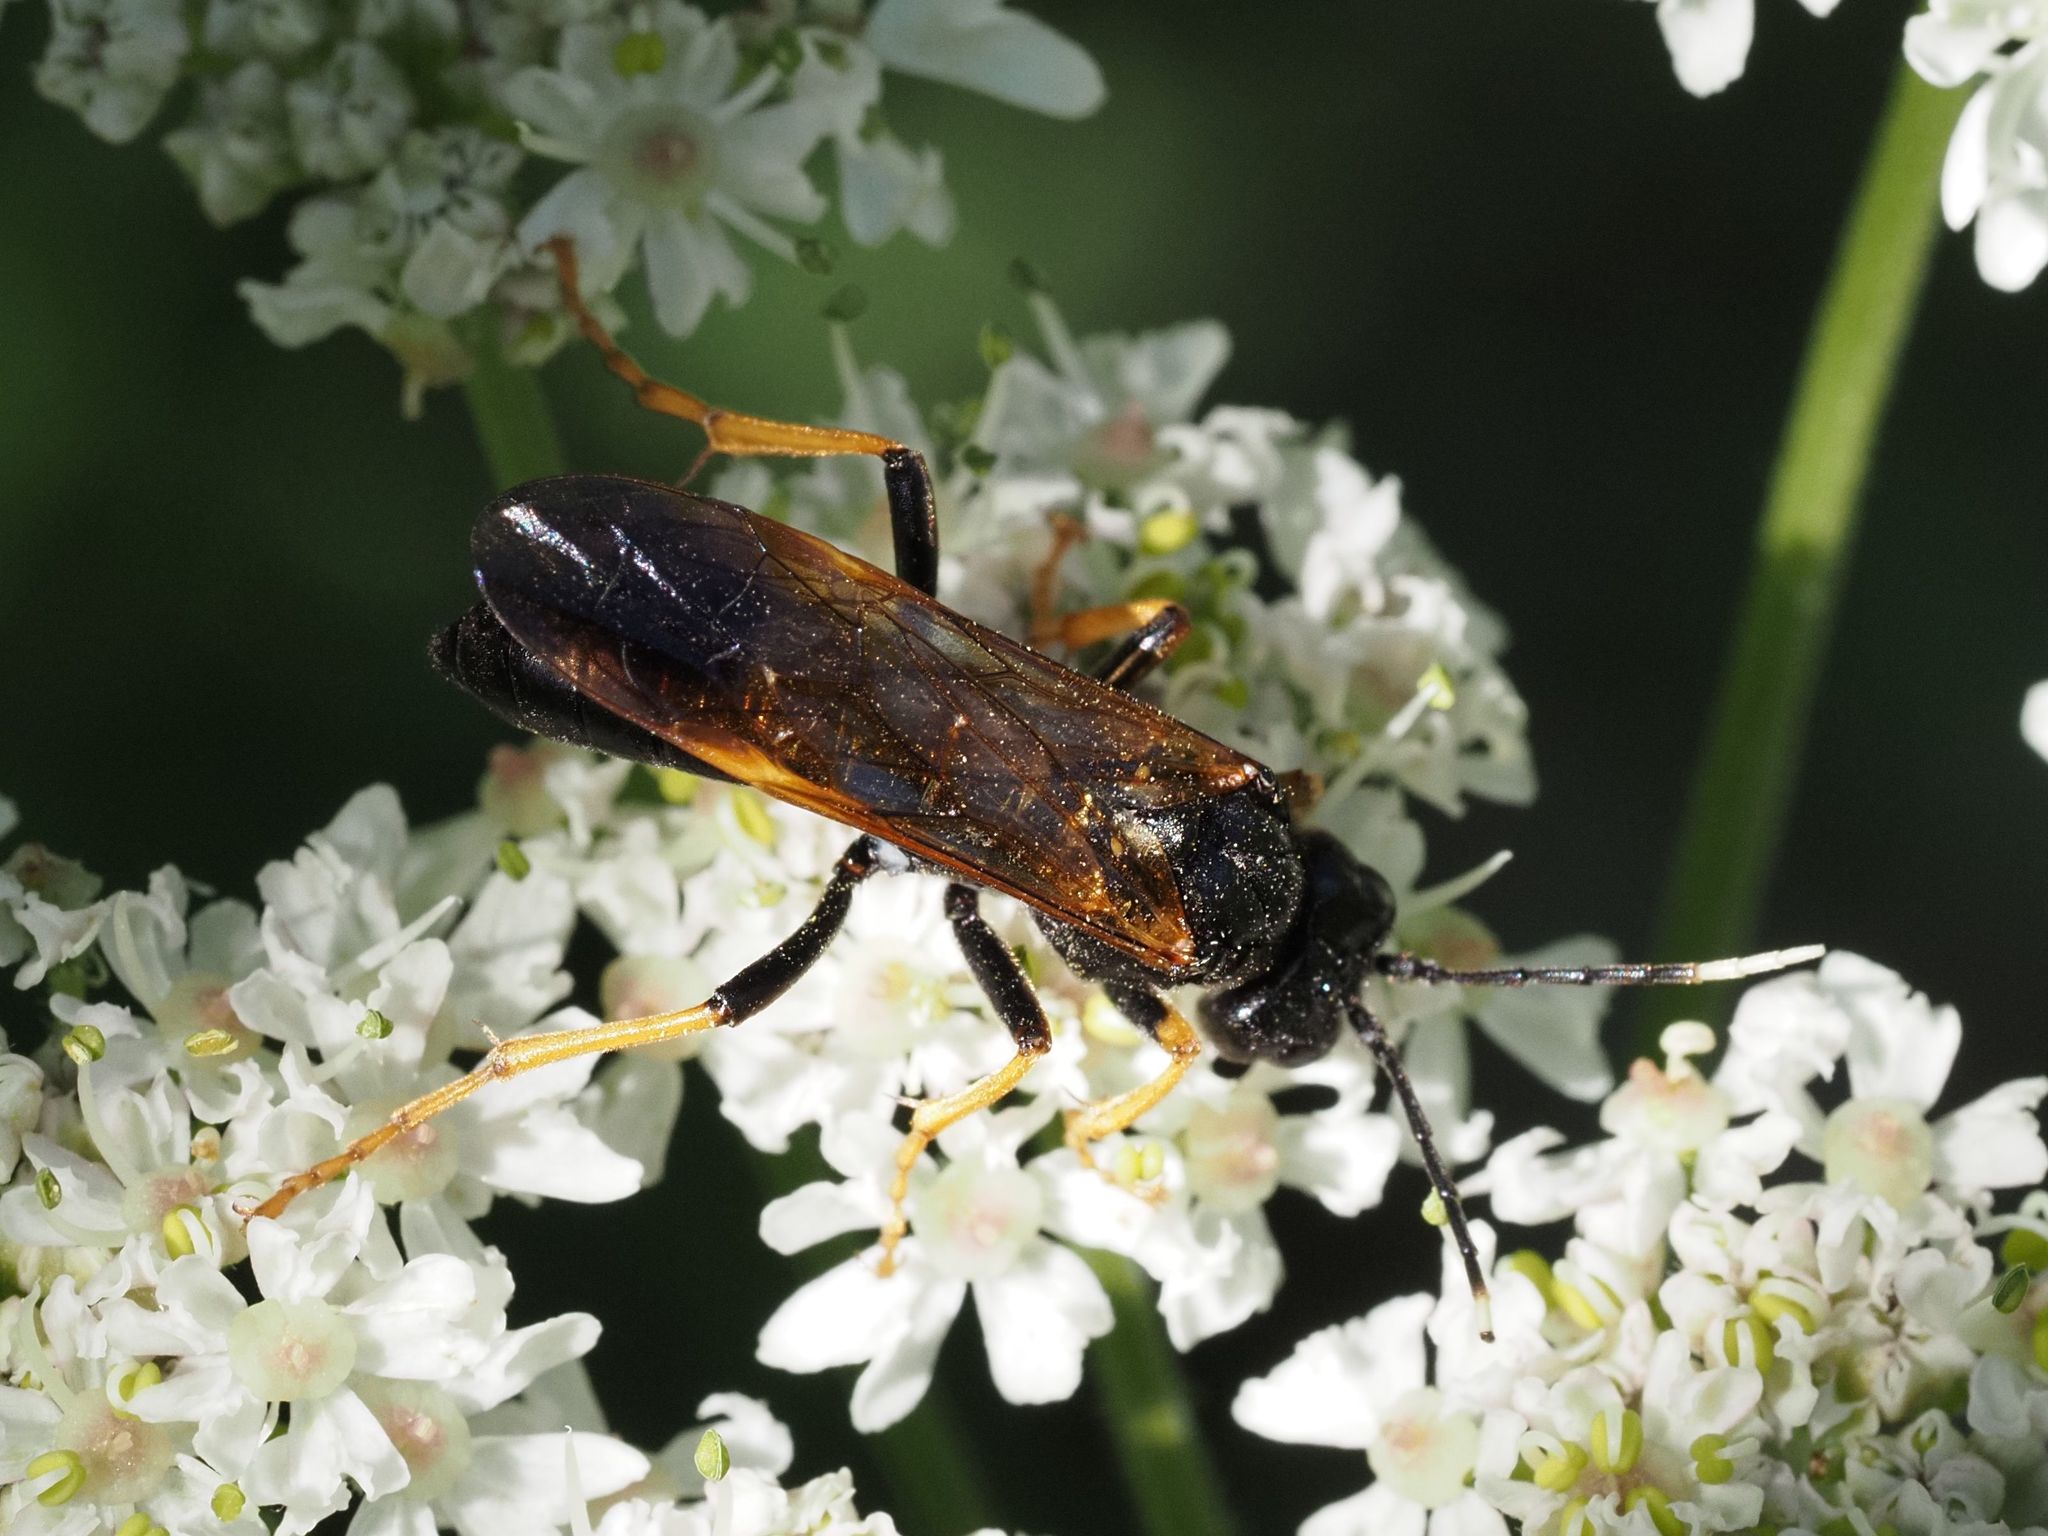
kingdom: Animalia
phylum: Arthropoda
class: Insecta
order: Hymenoptera
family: Tenthredinidae
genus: Tenthredo
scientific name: Tenthredo crassa
